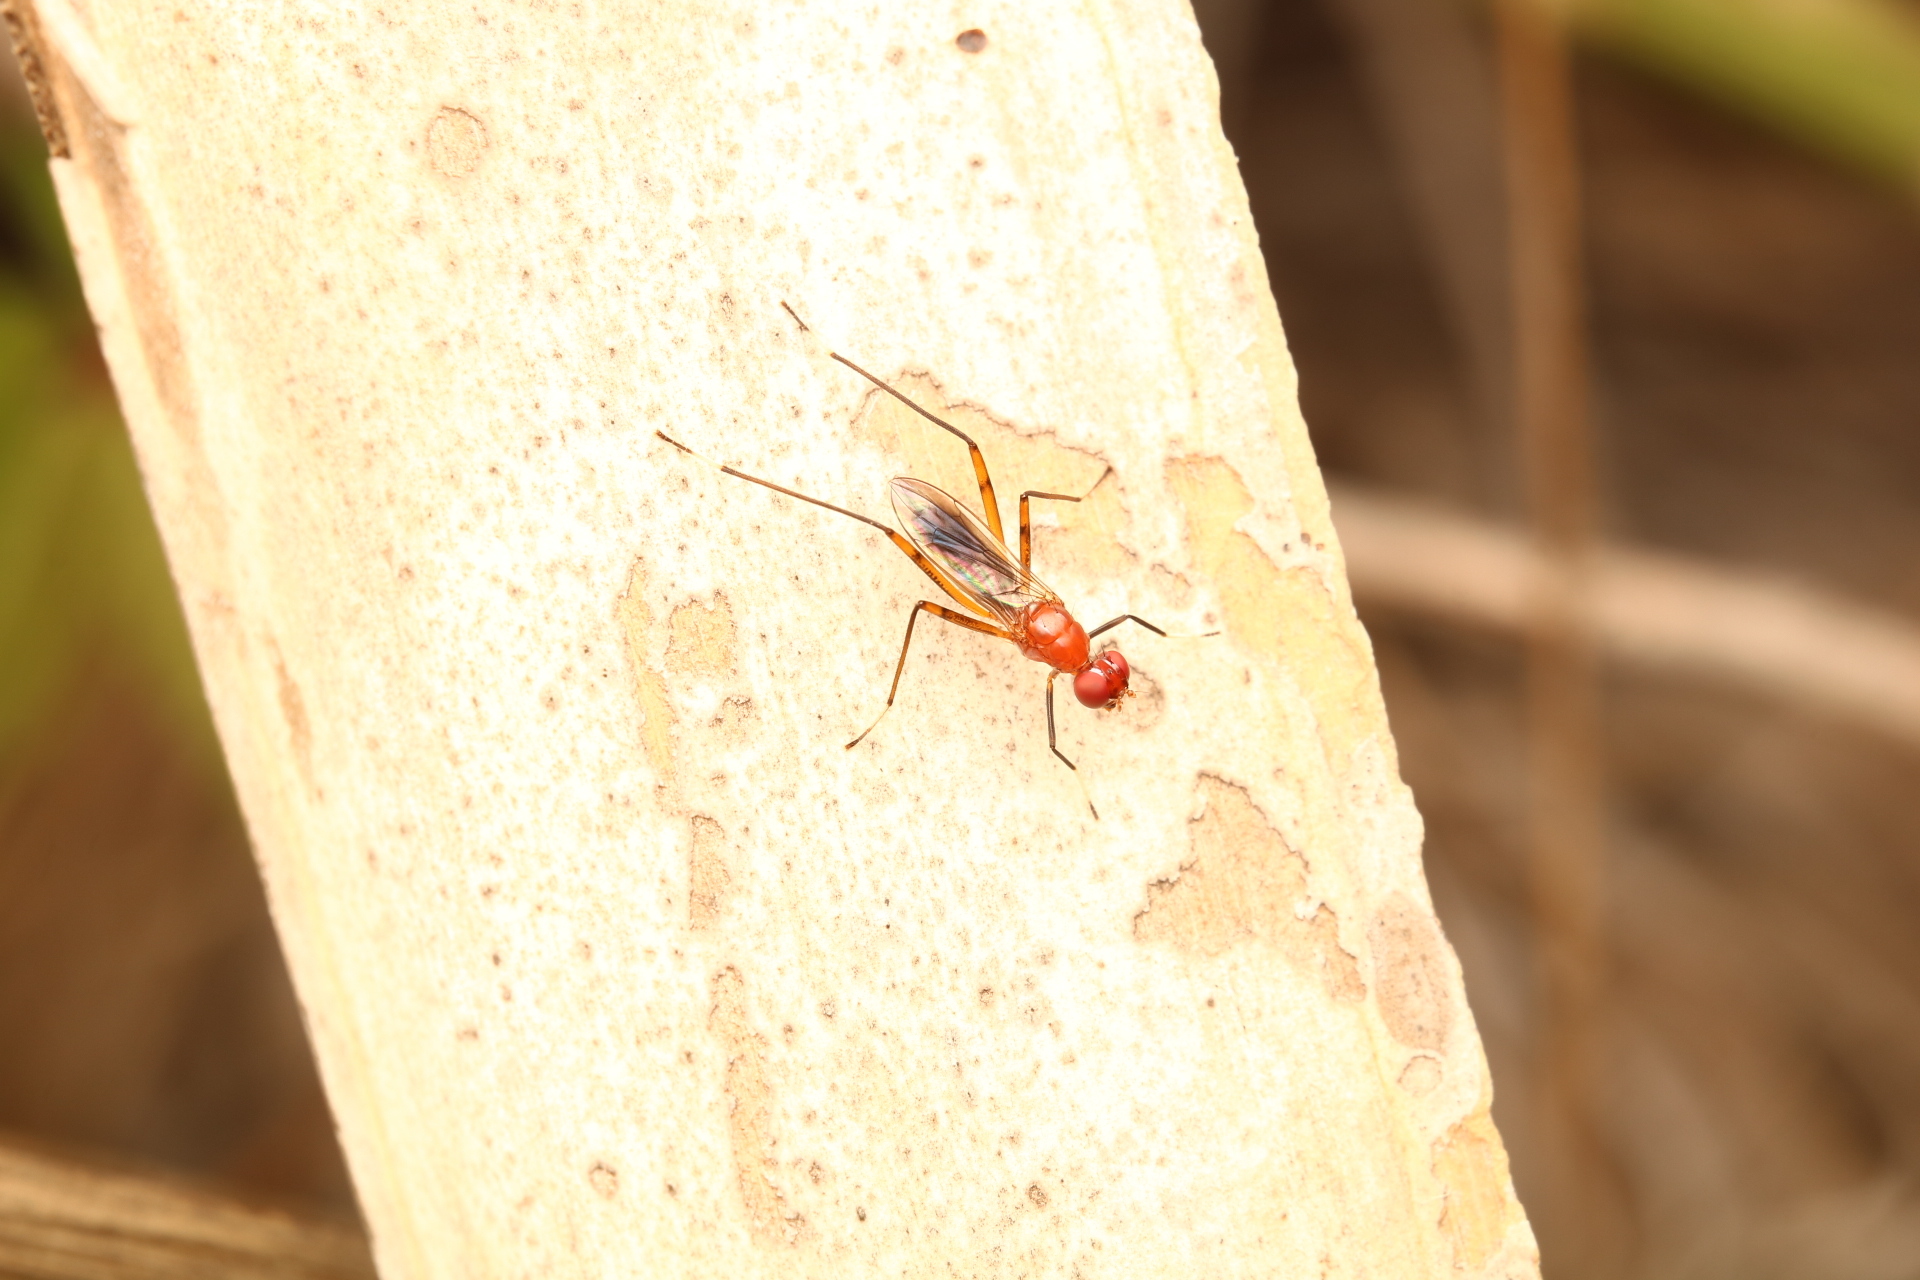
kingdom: Animalia
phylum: Arthropoda
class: Insecta
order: Diptera
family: Micropezidae
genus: Grallipeza
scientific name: Grallipeza nebulosa
